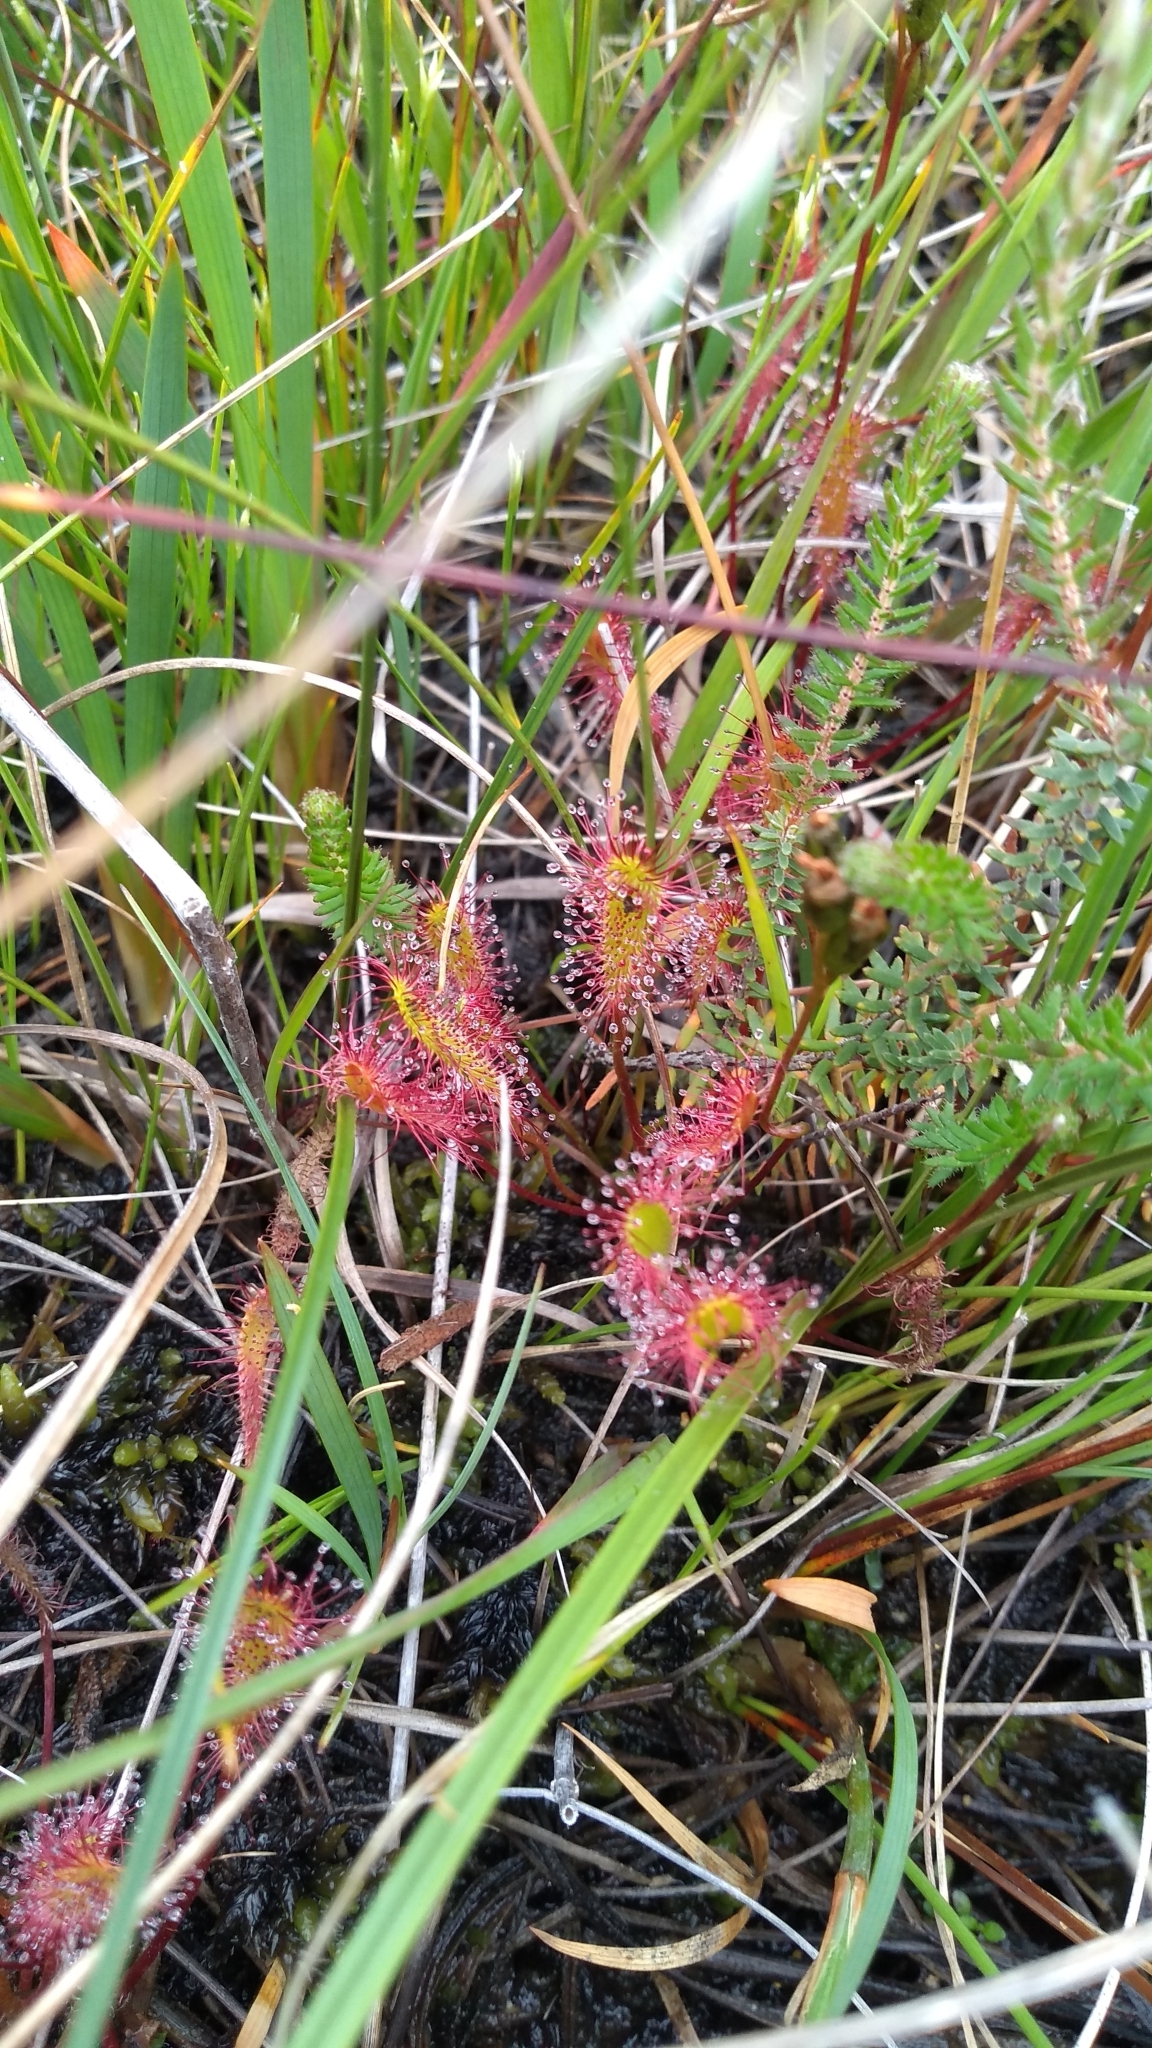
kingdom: Plantae
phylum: Tracheophyta
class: Magnoliopsida
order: Caryophyllales
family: Droseraceae
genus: Drosera
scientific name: Drosera anglica
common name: Great sundew
